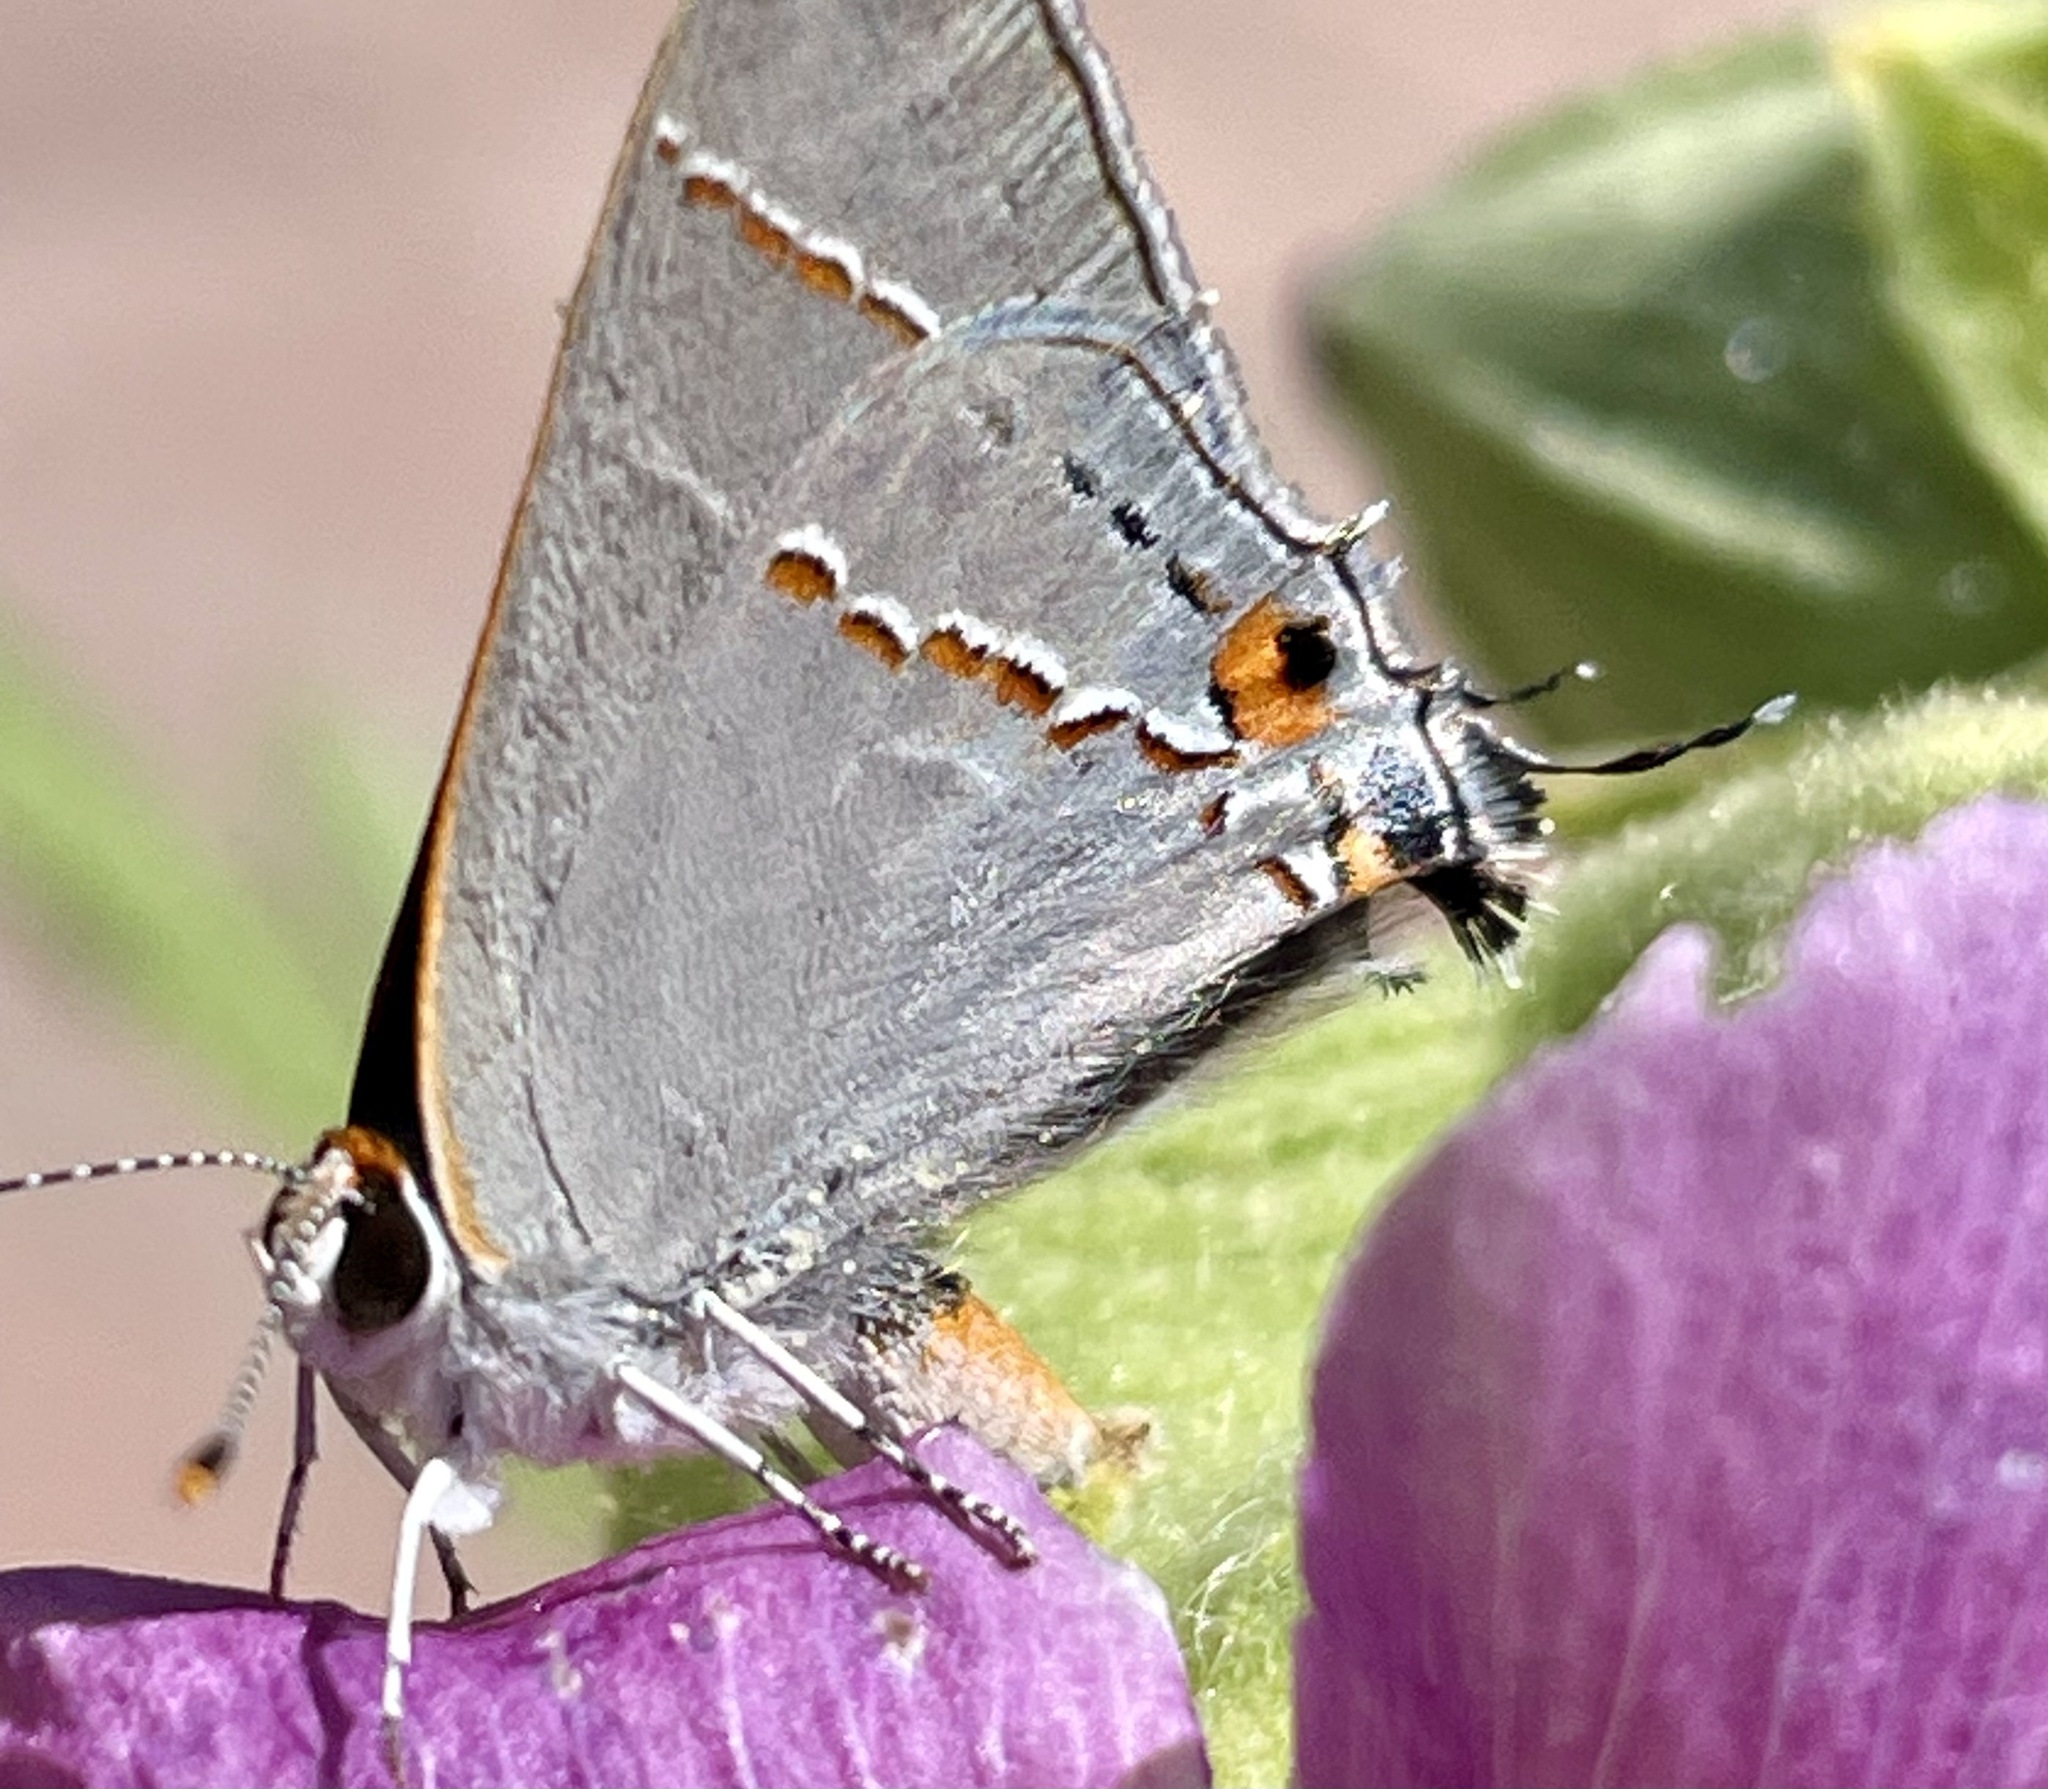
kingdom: Animalia
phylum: Arthropoda
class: Insecta
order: Lepidoptera
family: Lycaenidae
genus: Strymon
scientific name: Strymon melinus
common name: Gray hairstreak
